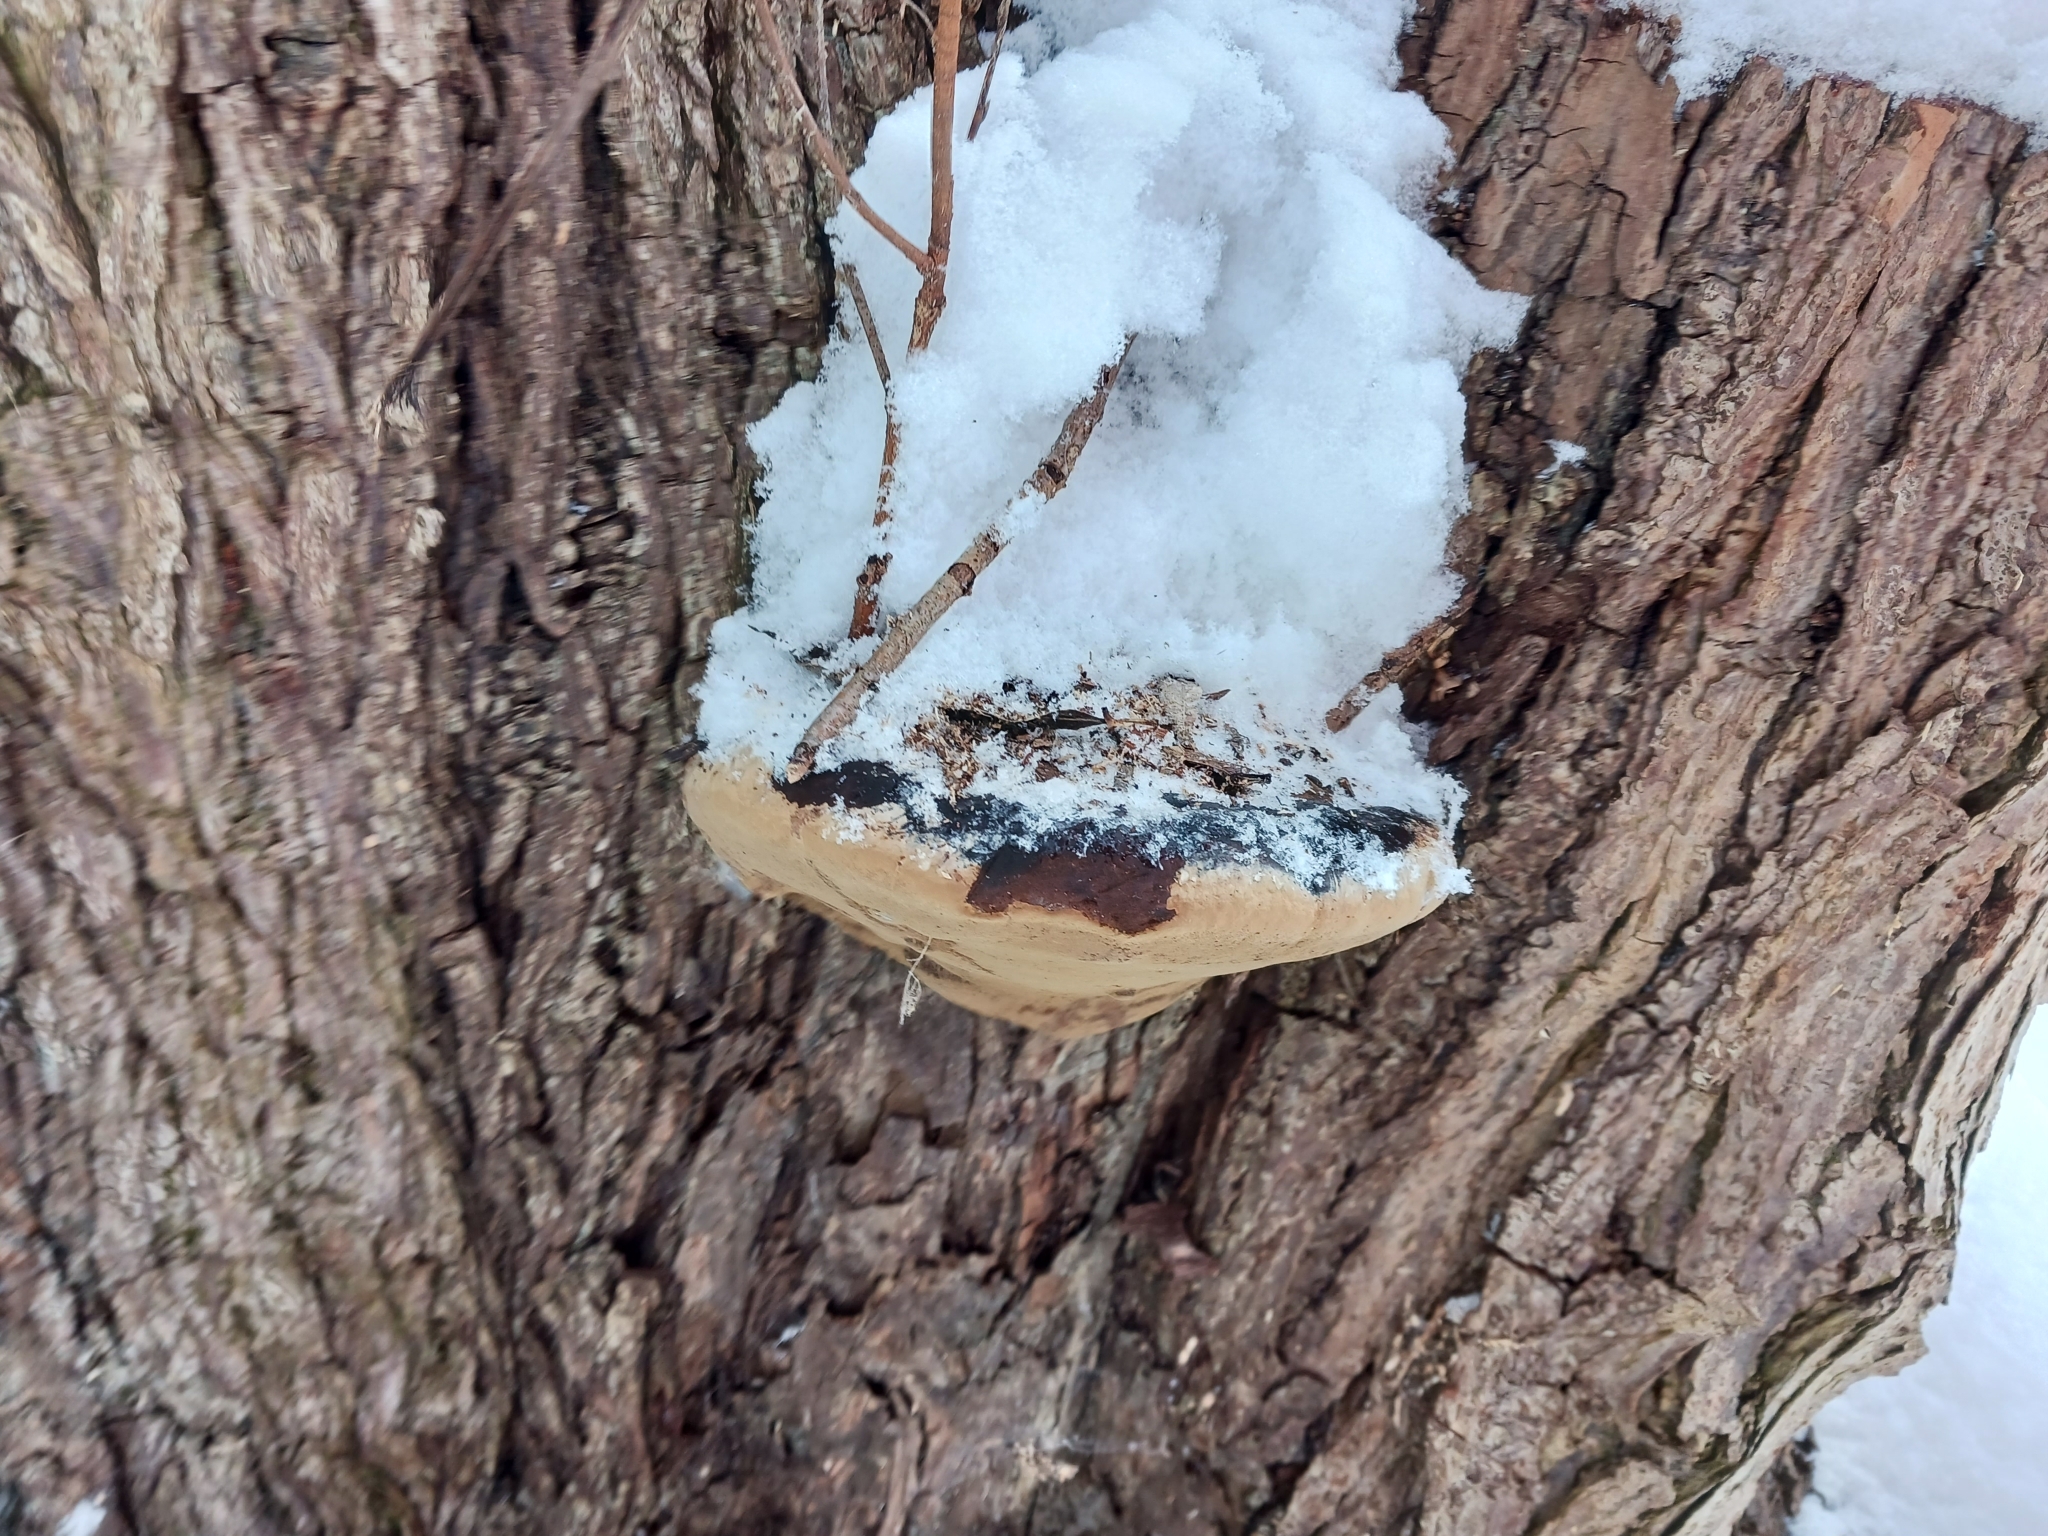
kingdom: Fungi
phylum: Basidiomycota
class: Agaricomycetes
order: Hymenochaetales
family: Hymenochaetaceae
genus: Phellinus
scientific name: Phellinus igniarius
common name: Willow bracket
